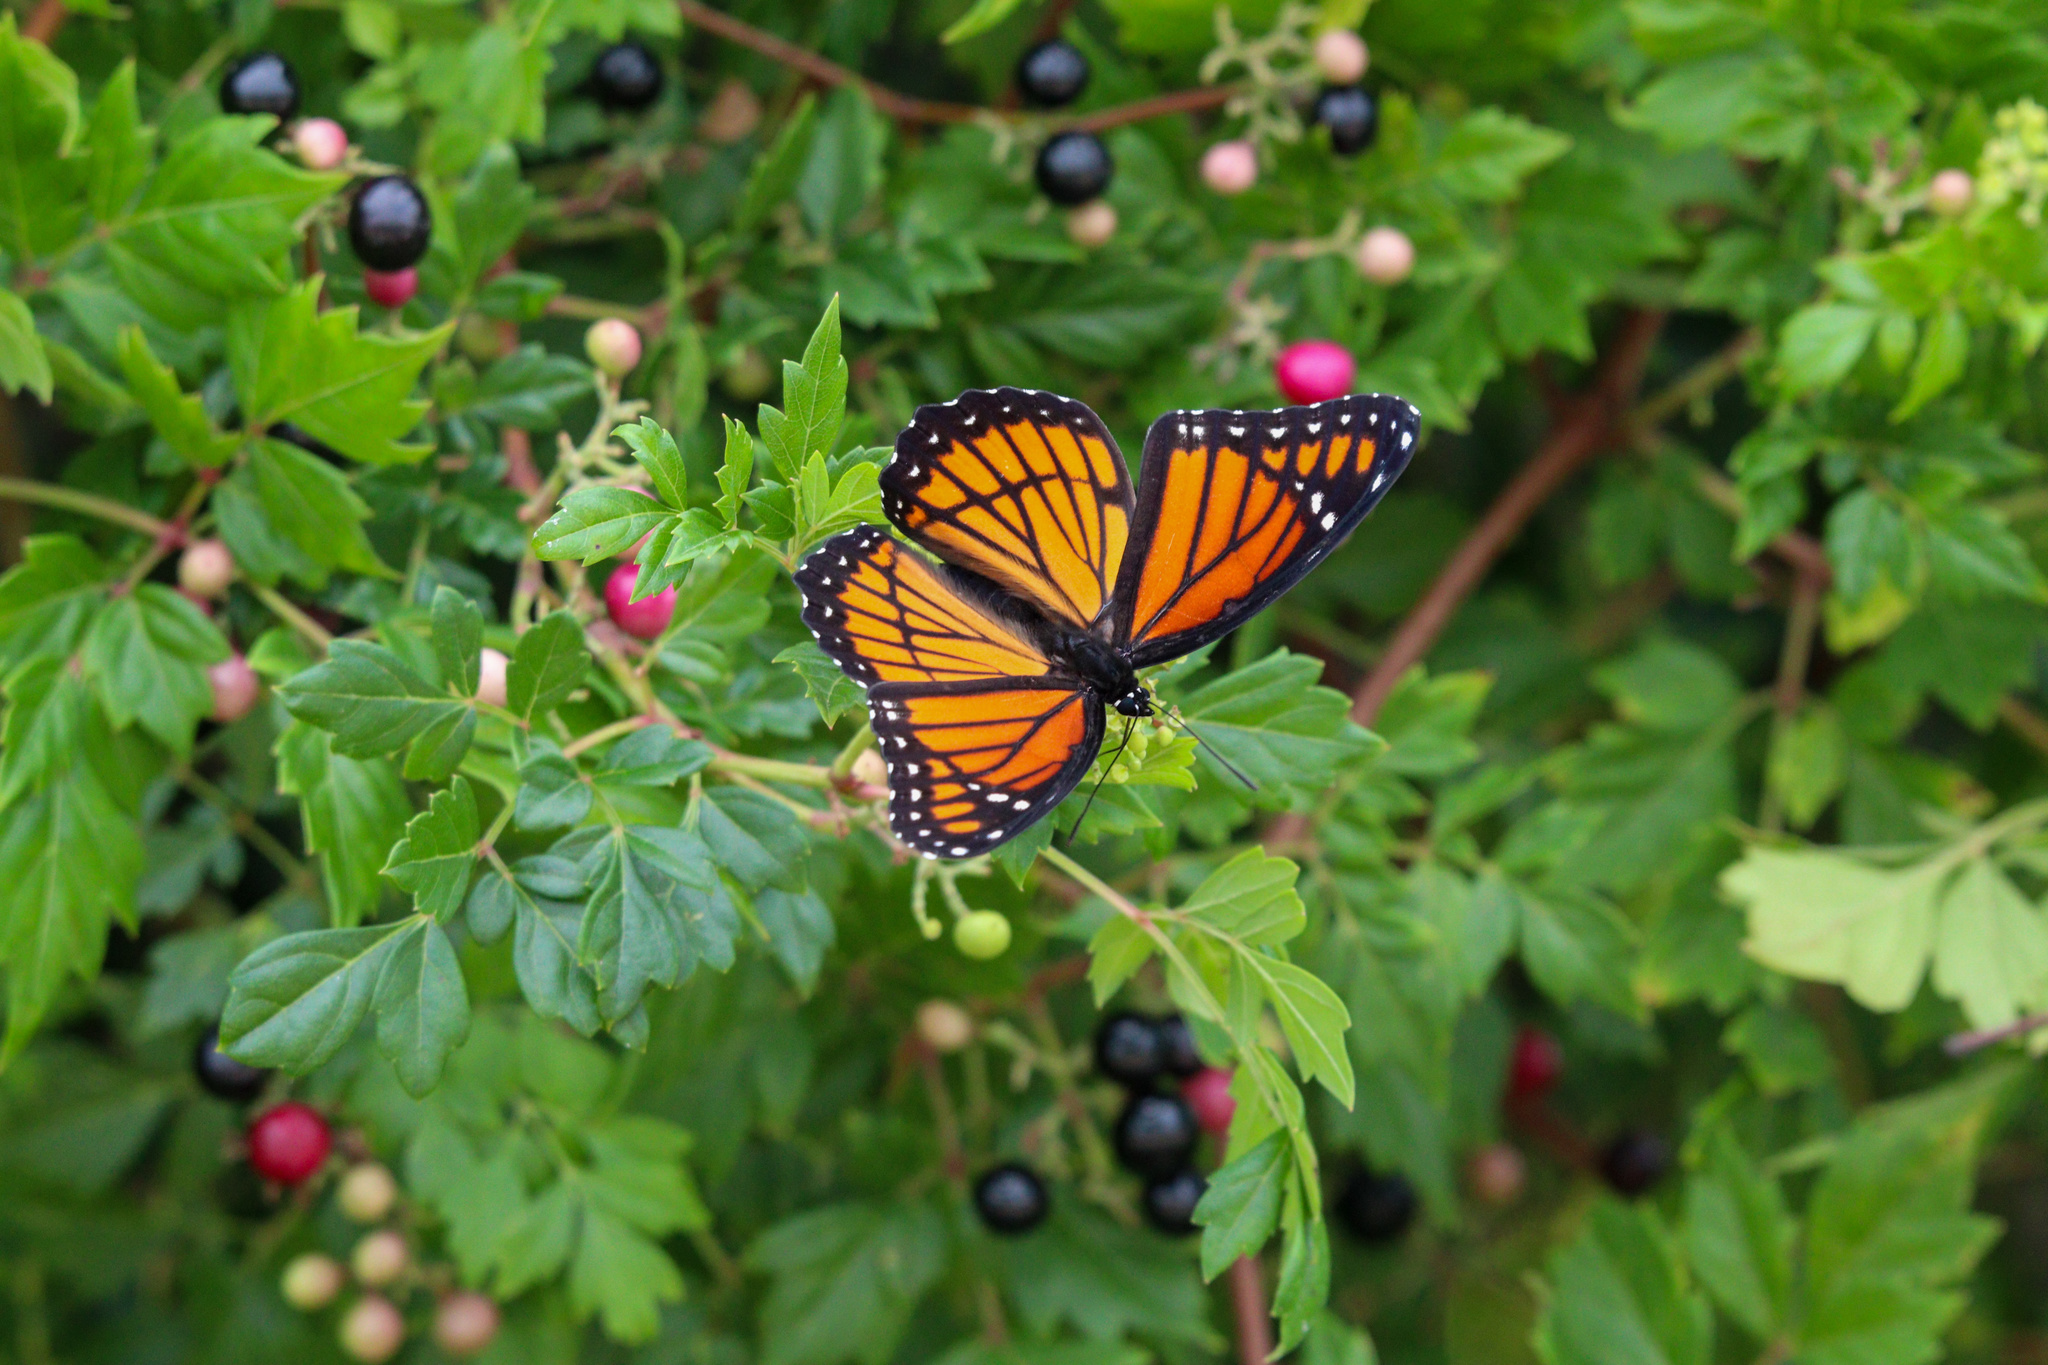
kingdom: Animalia
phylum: Arthropoda
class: Insecta
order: Lepidoptera
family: Nymphalidae
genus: Limenitis
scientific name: Limenitis archippus
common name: Viceroy
